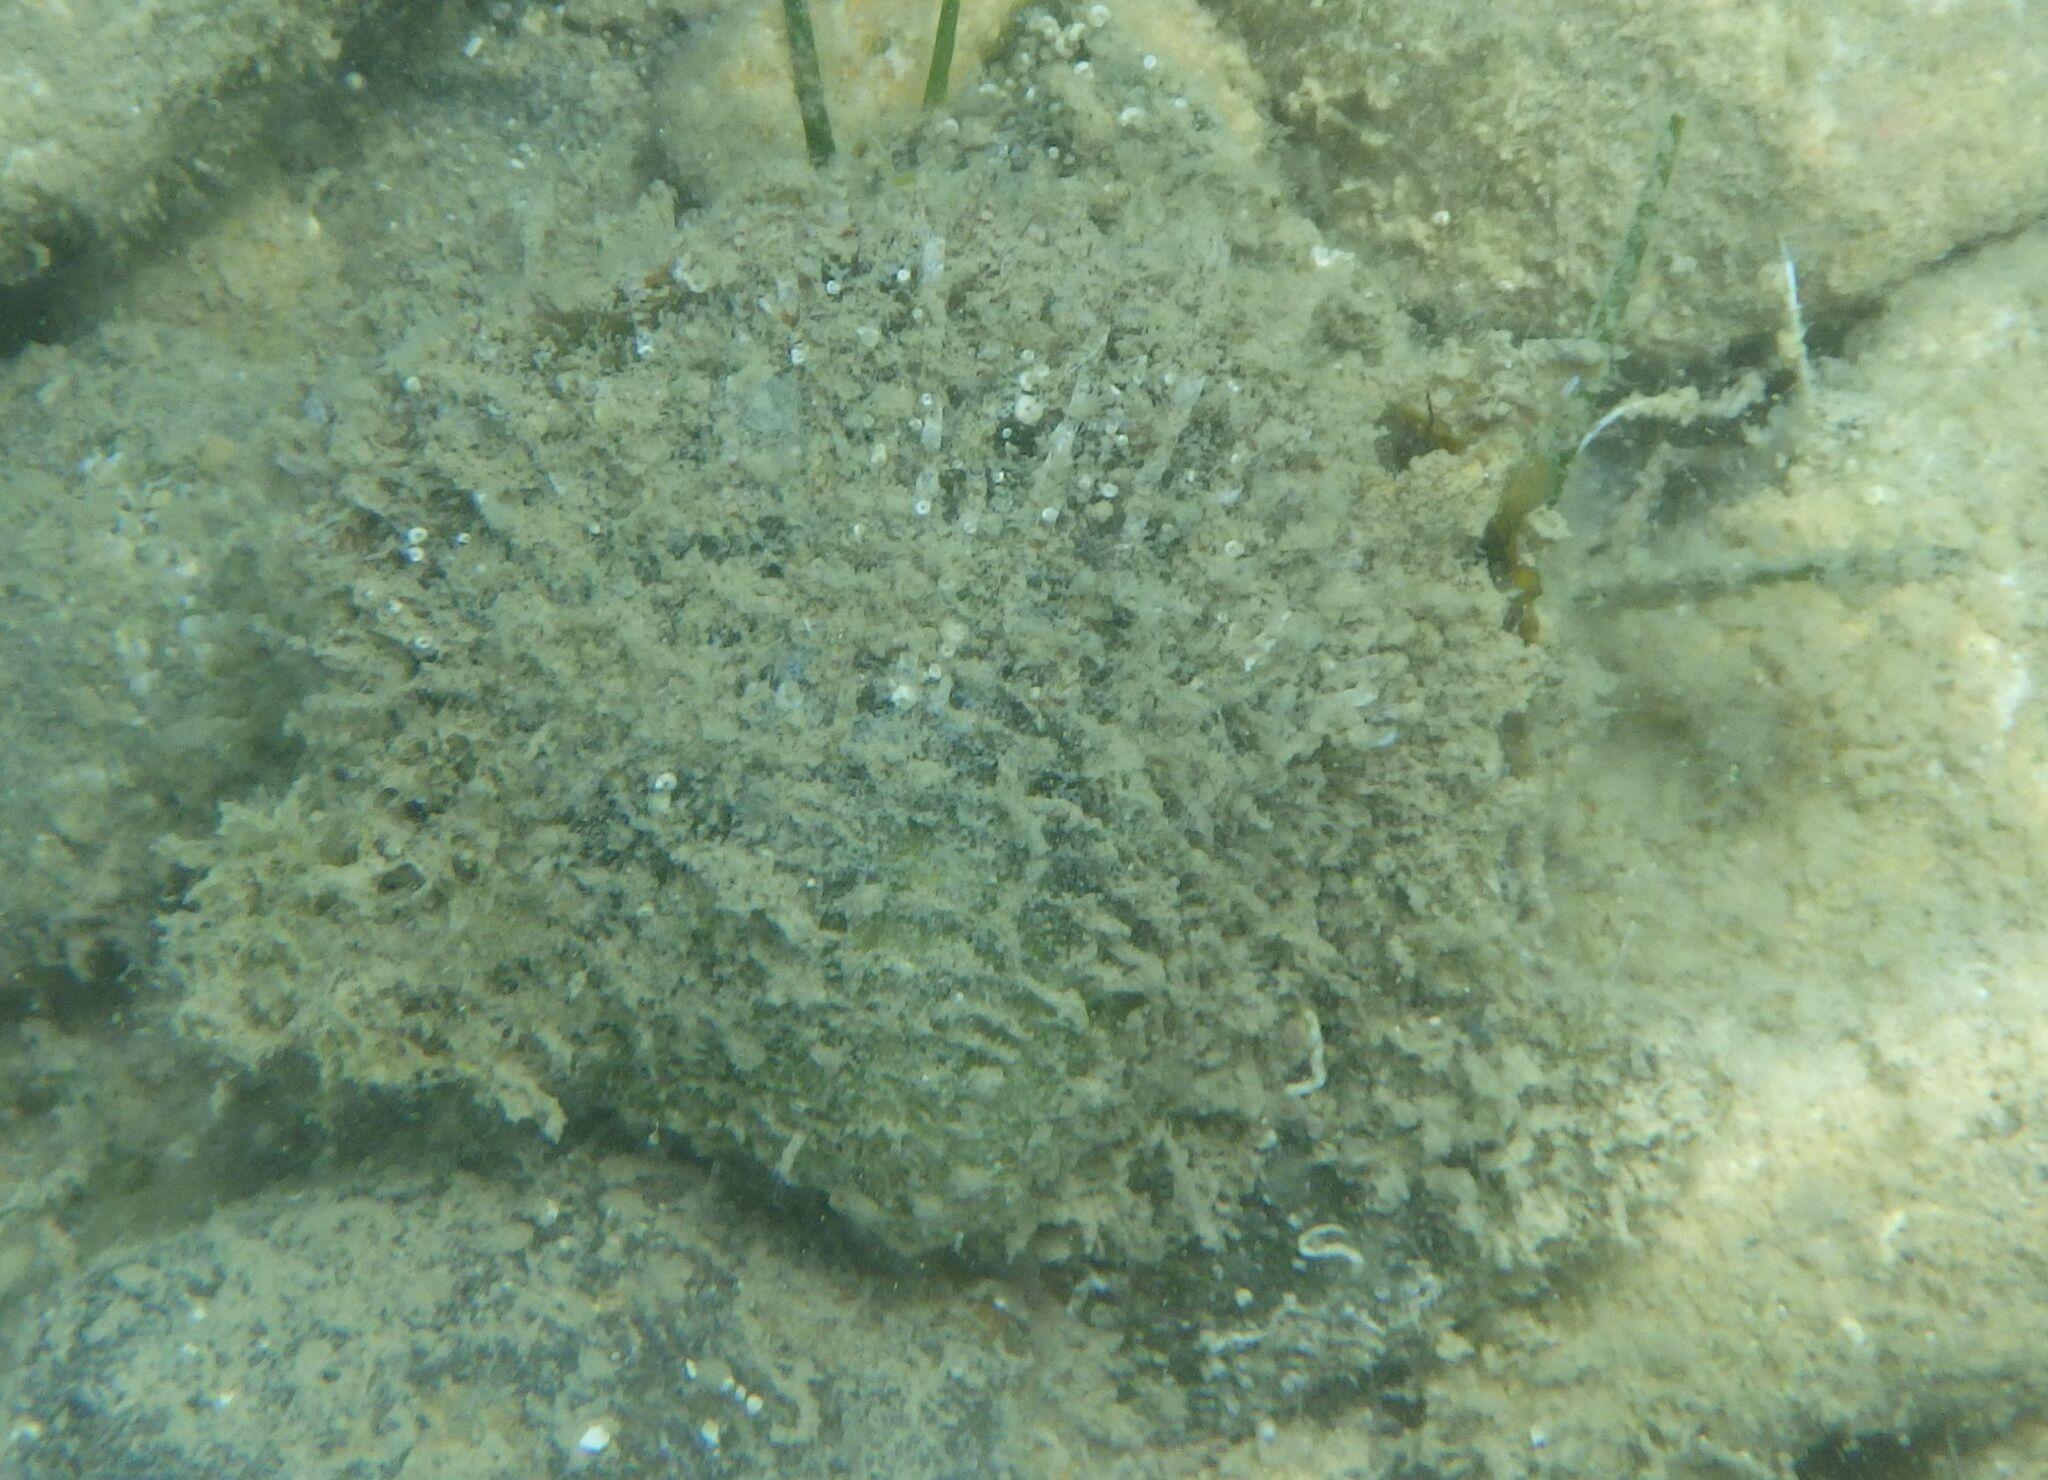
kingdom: Animalia
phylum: Mollusca
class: Bivalvia
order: Ostreida
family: Margaritidae
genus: Pinctada
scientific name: Pinctada radiata
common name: Rayed pearl oyster
